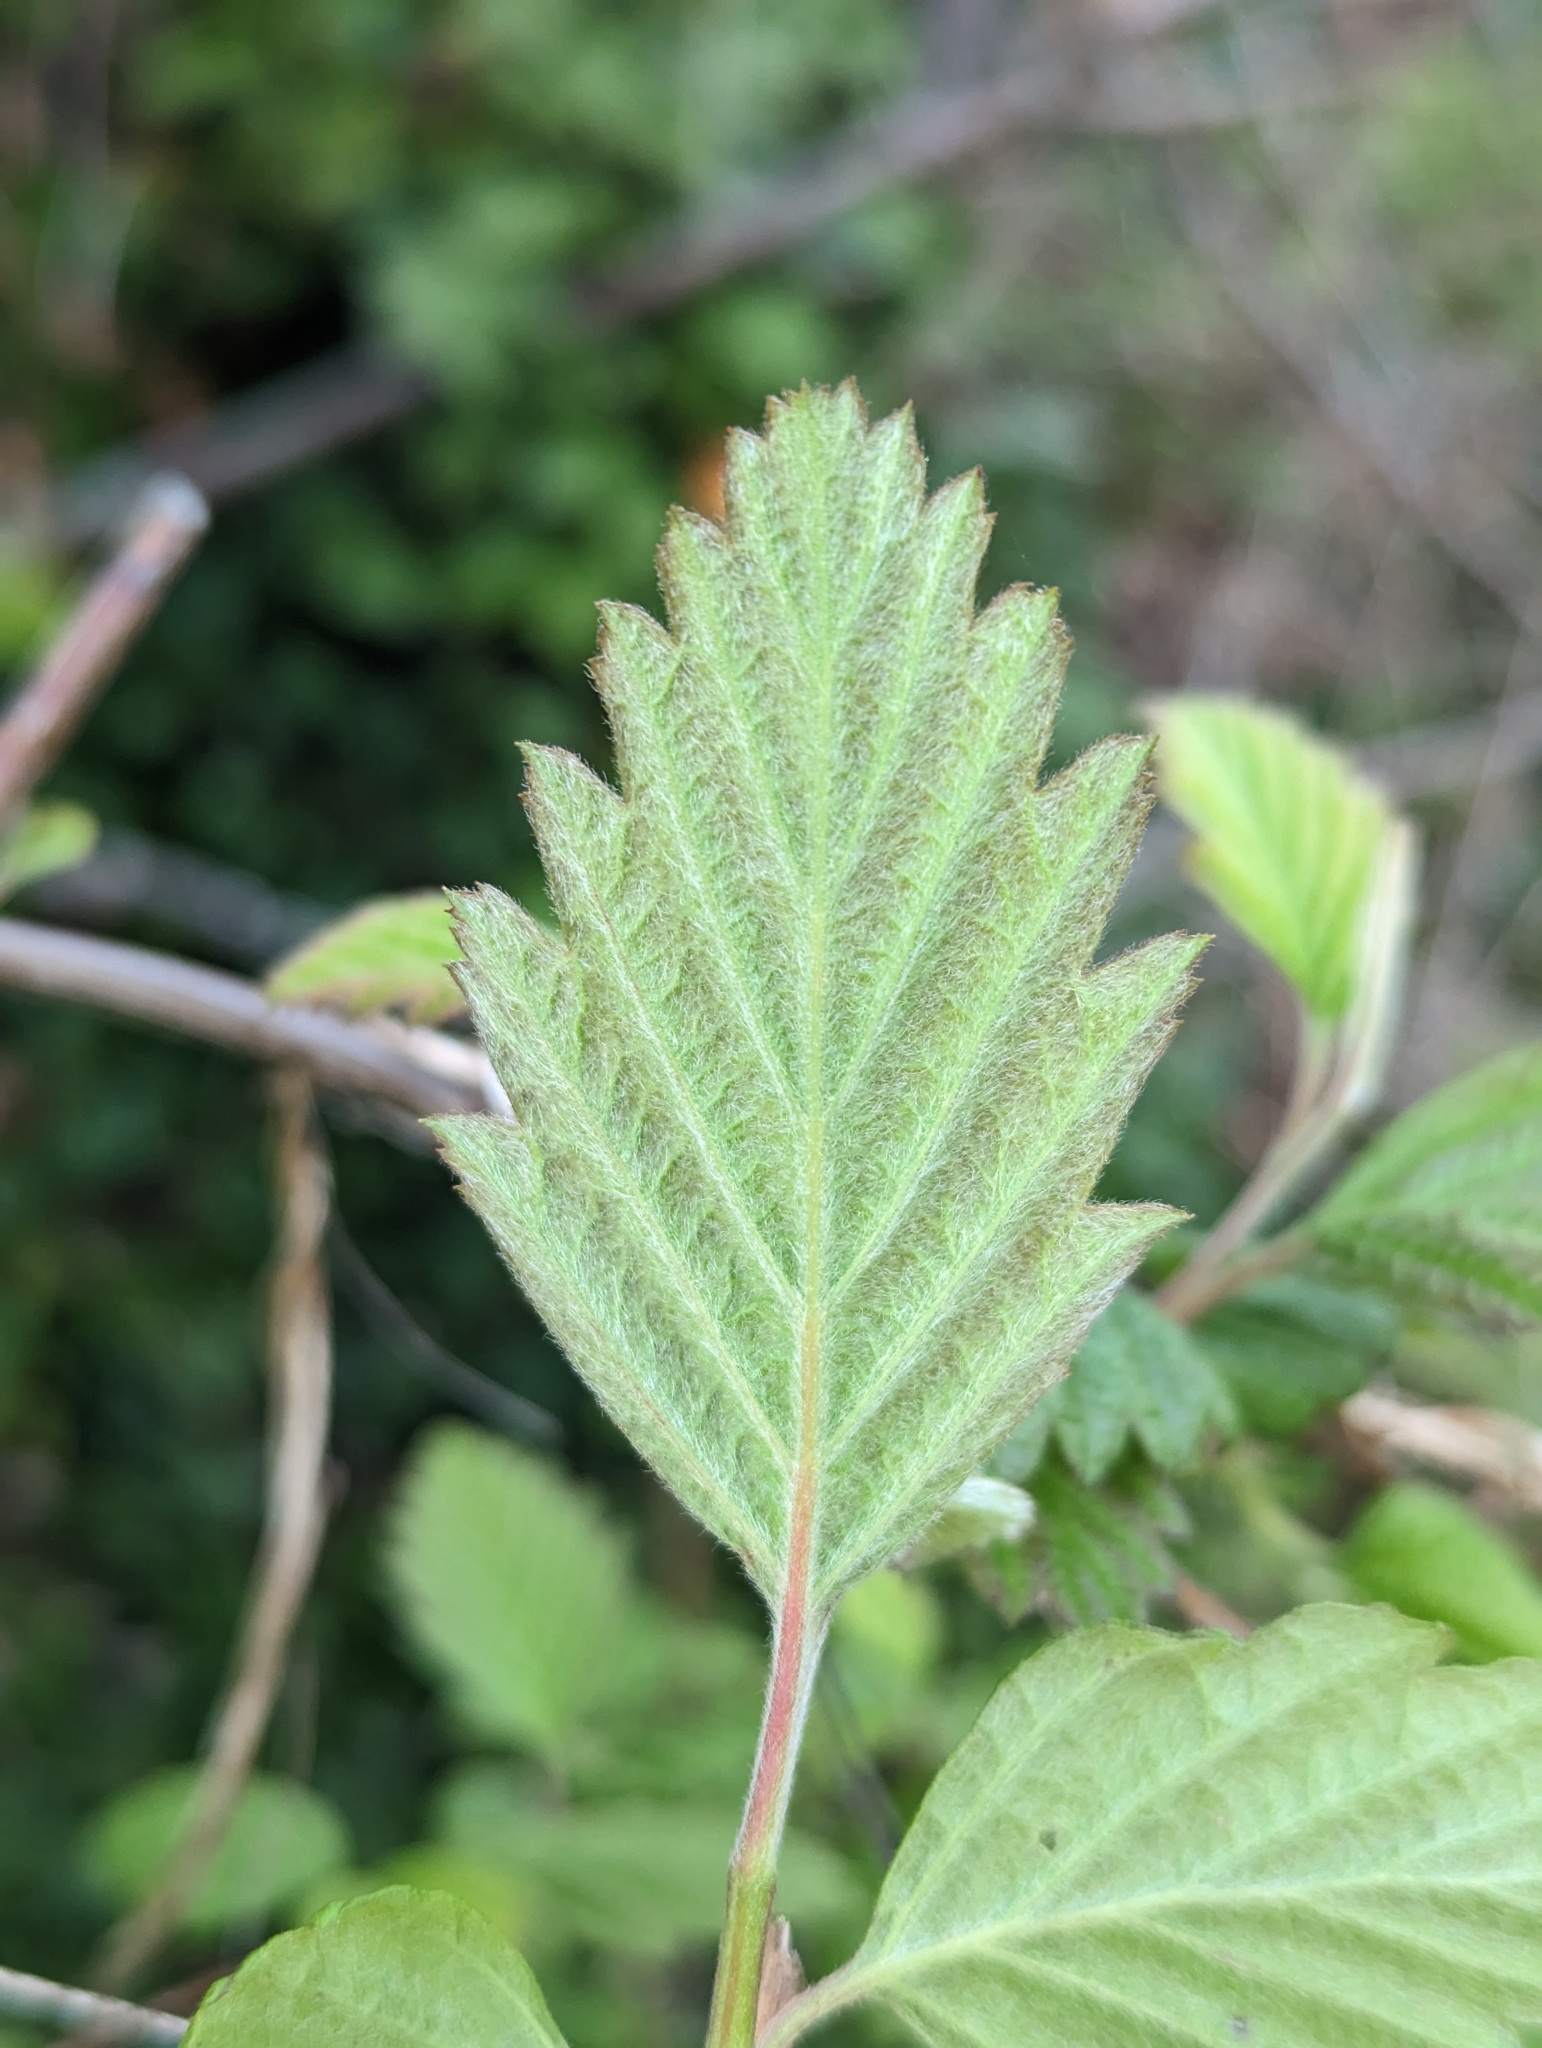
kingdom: Plantae
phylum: Tracheophyta
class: Magnoliopsida
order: Rosales
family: Rosaceae
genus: Holodiscus
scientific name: Holodiscus discolor
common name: Oceanspray
